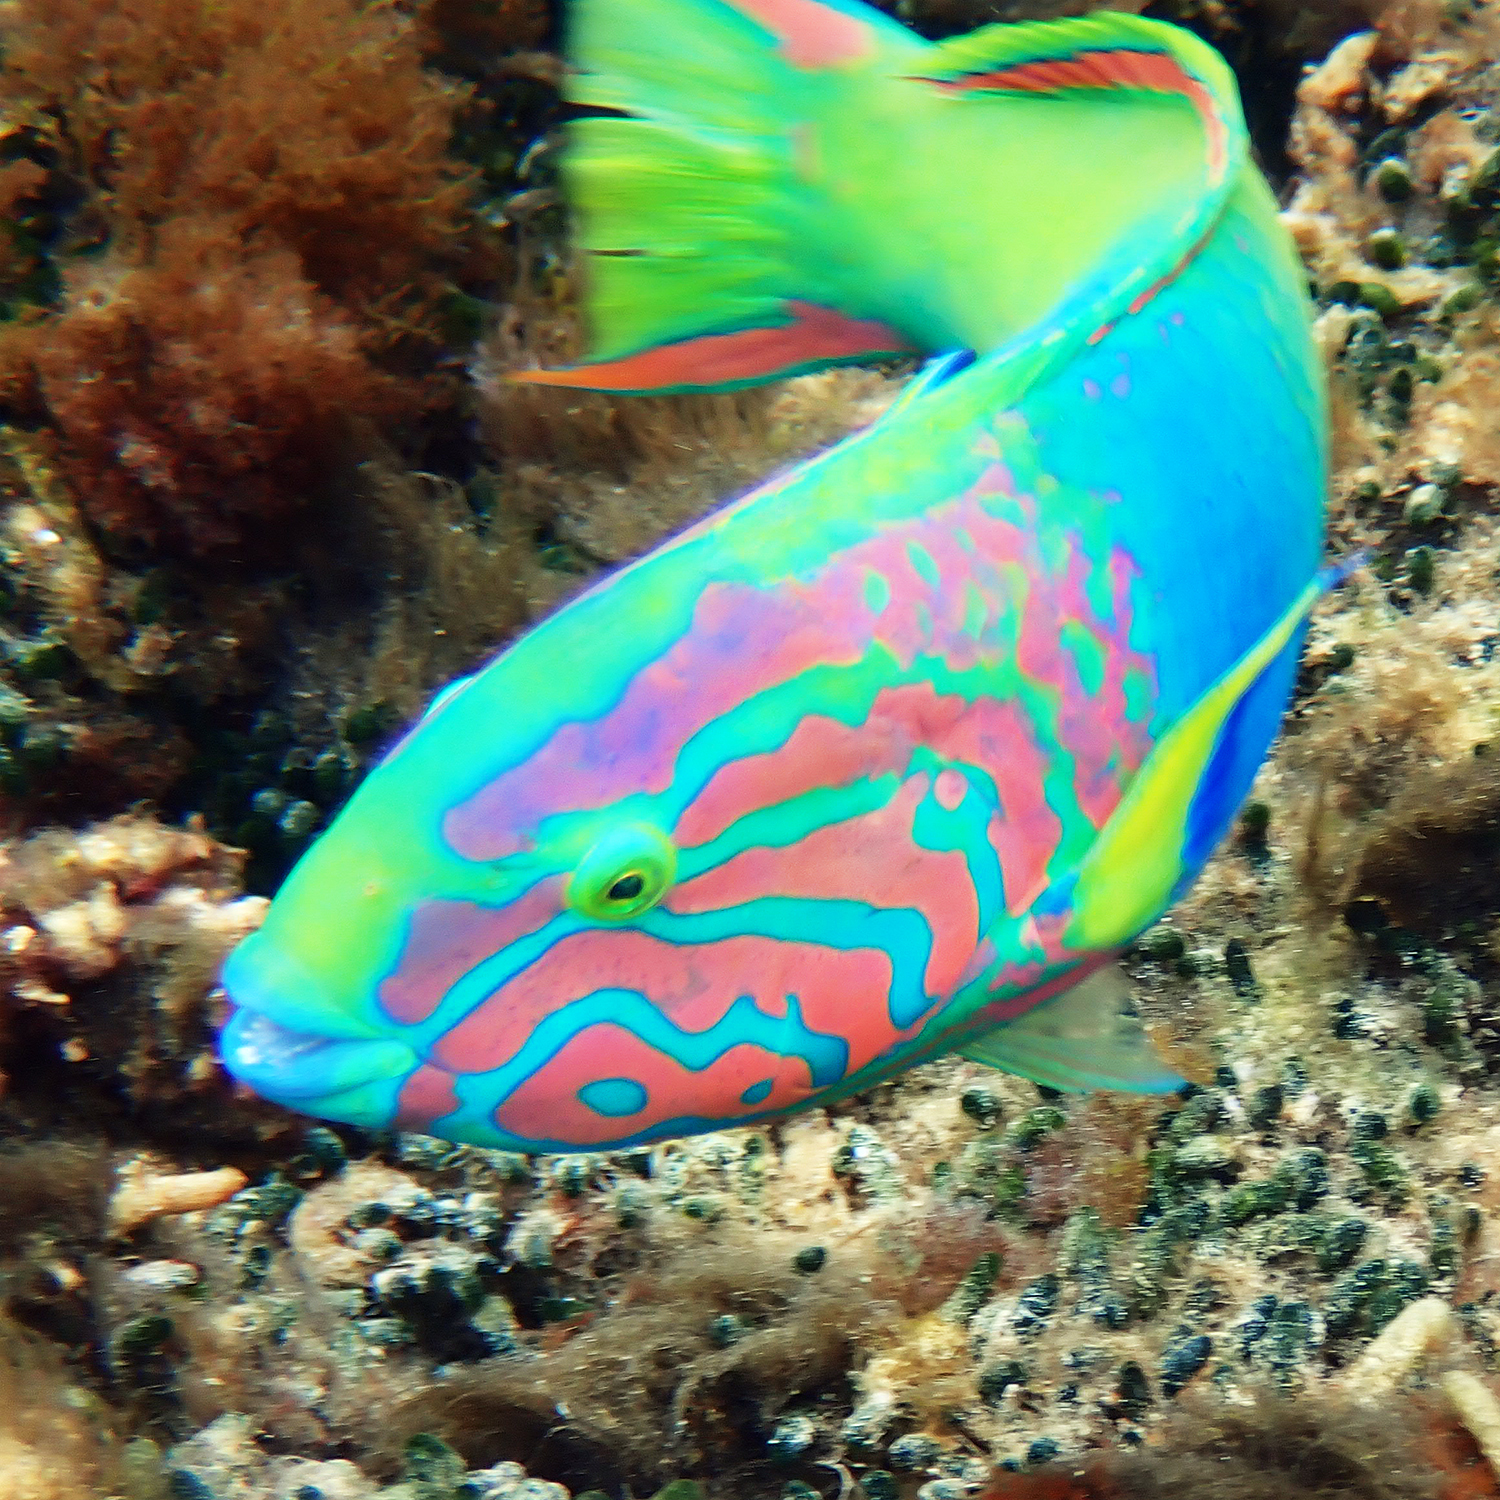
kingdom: Animalia
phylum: Chordata
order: Perciformes
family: Labridae
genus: Thalassoma
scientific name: Thalassoma lutescens
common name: Green moon wrasse
